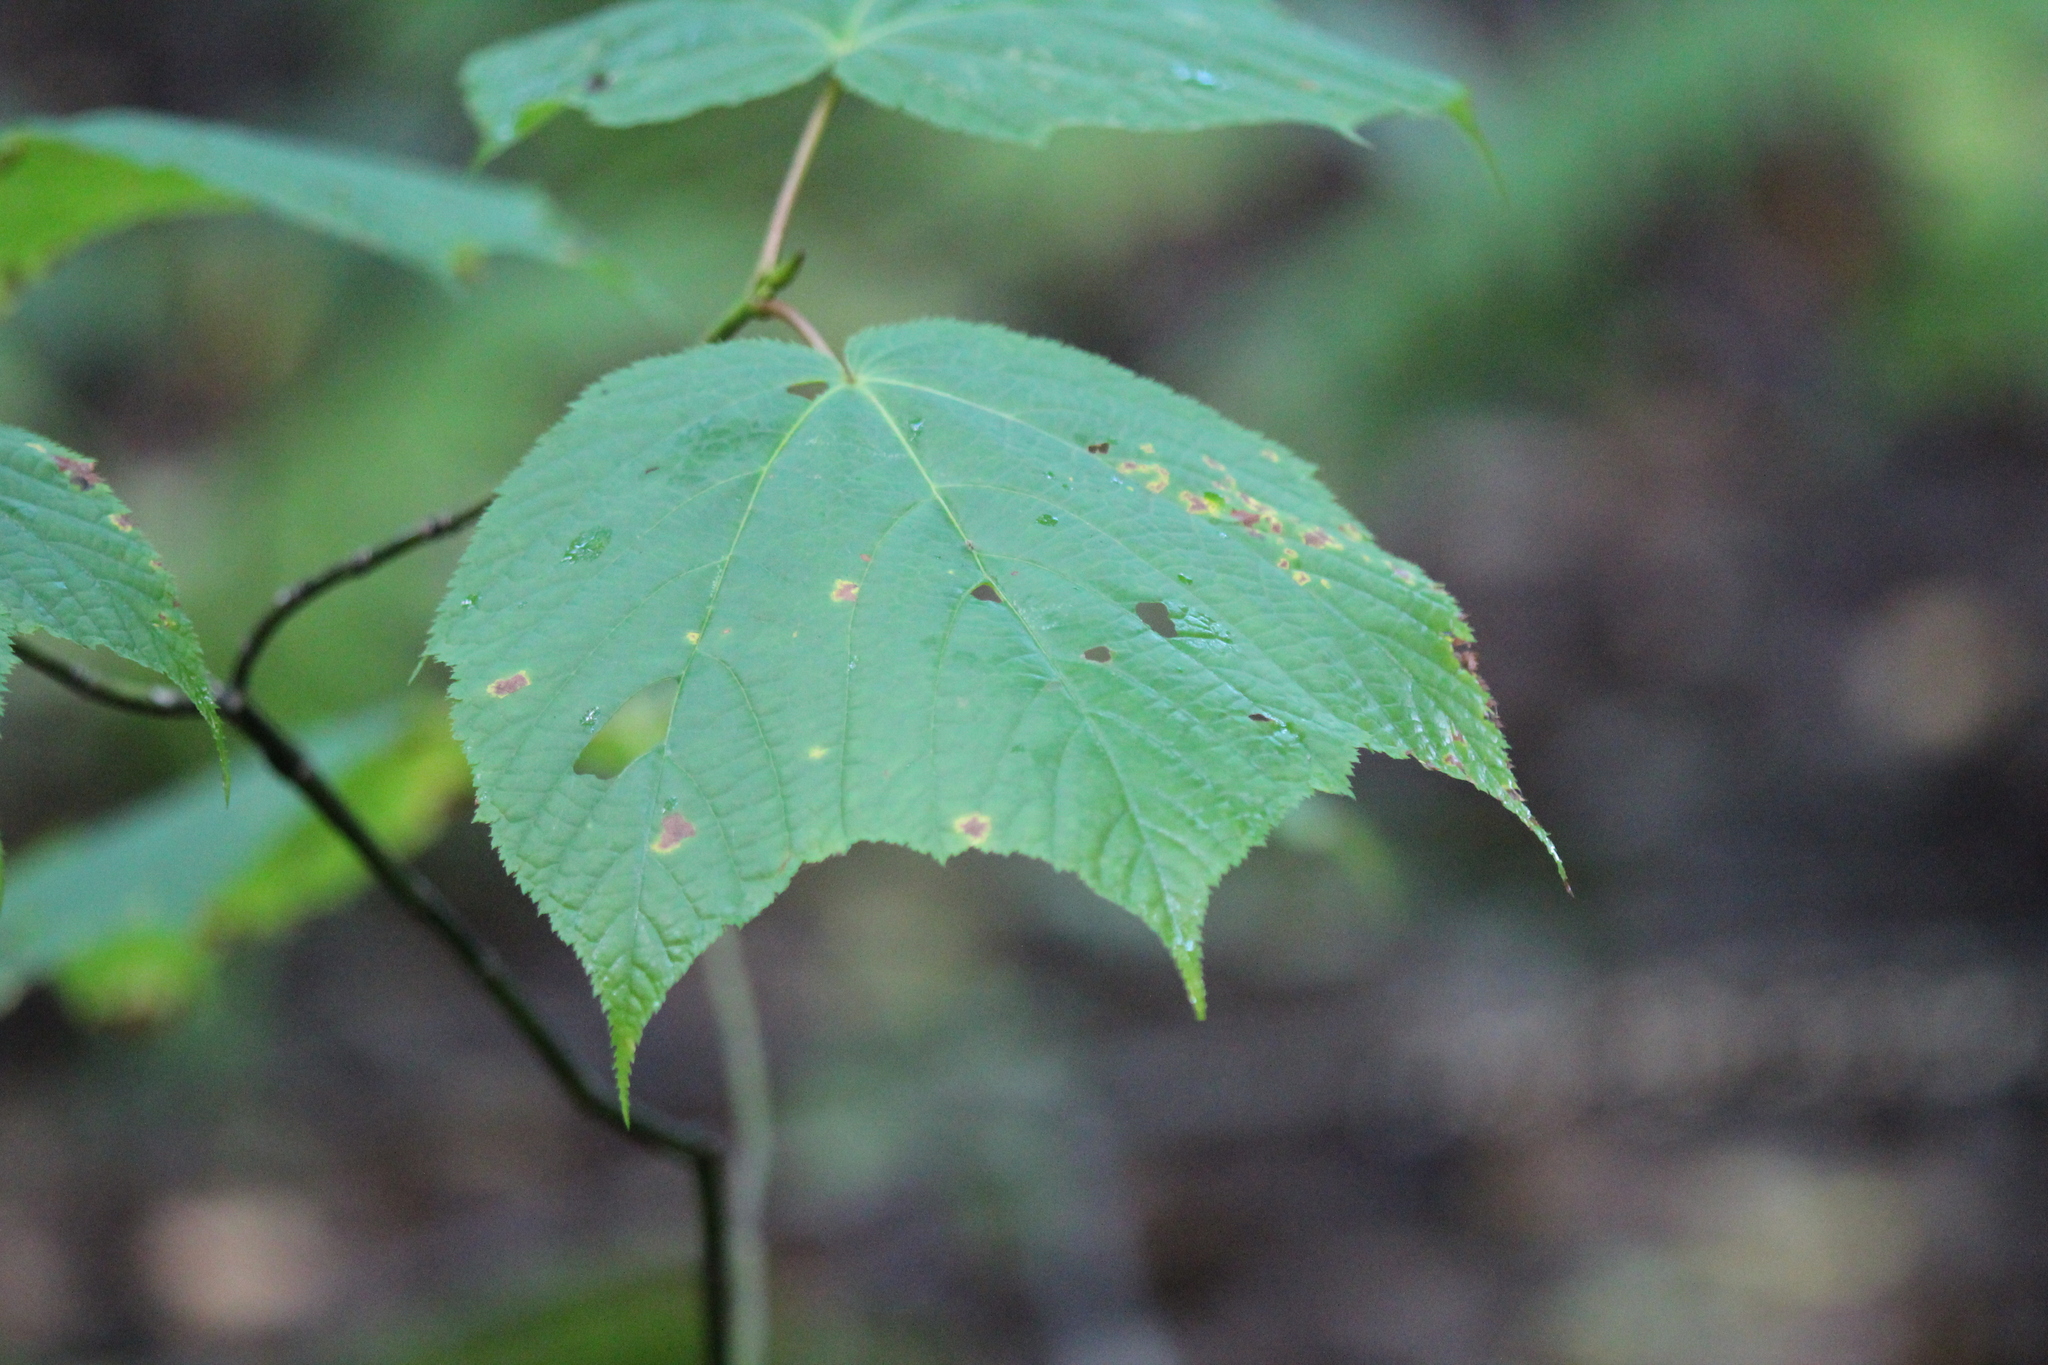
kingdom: Plantae
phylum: Tracheophyta
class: Magnoliopsida
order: Sapindales
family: Sapindaceae
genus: Acer
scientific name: Acer pensylvanicum
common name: Moosewood
